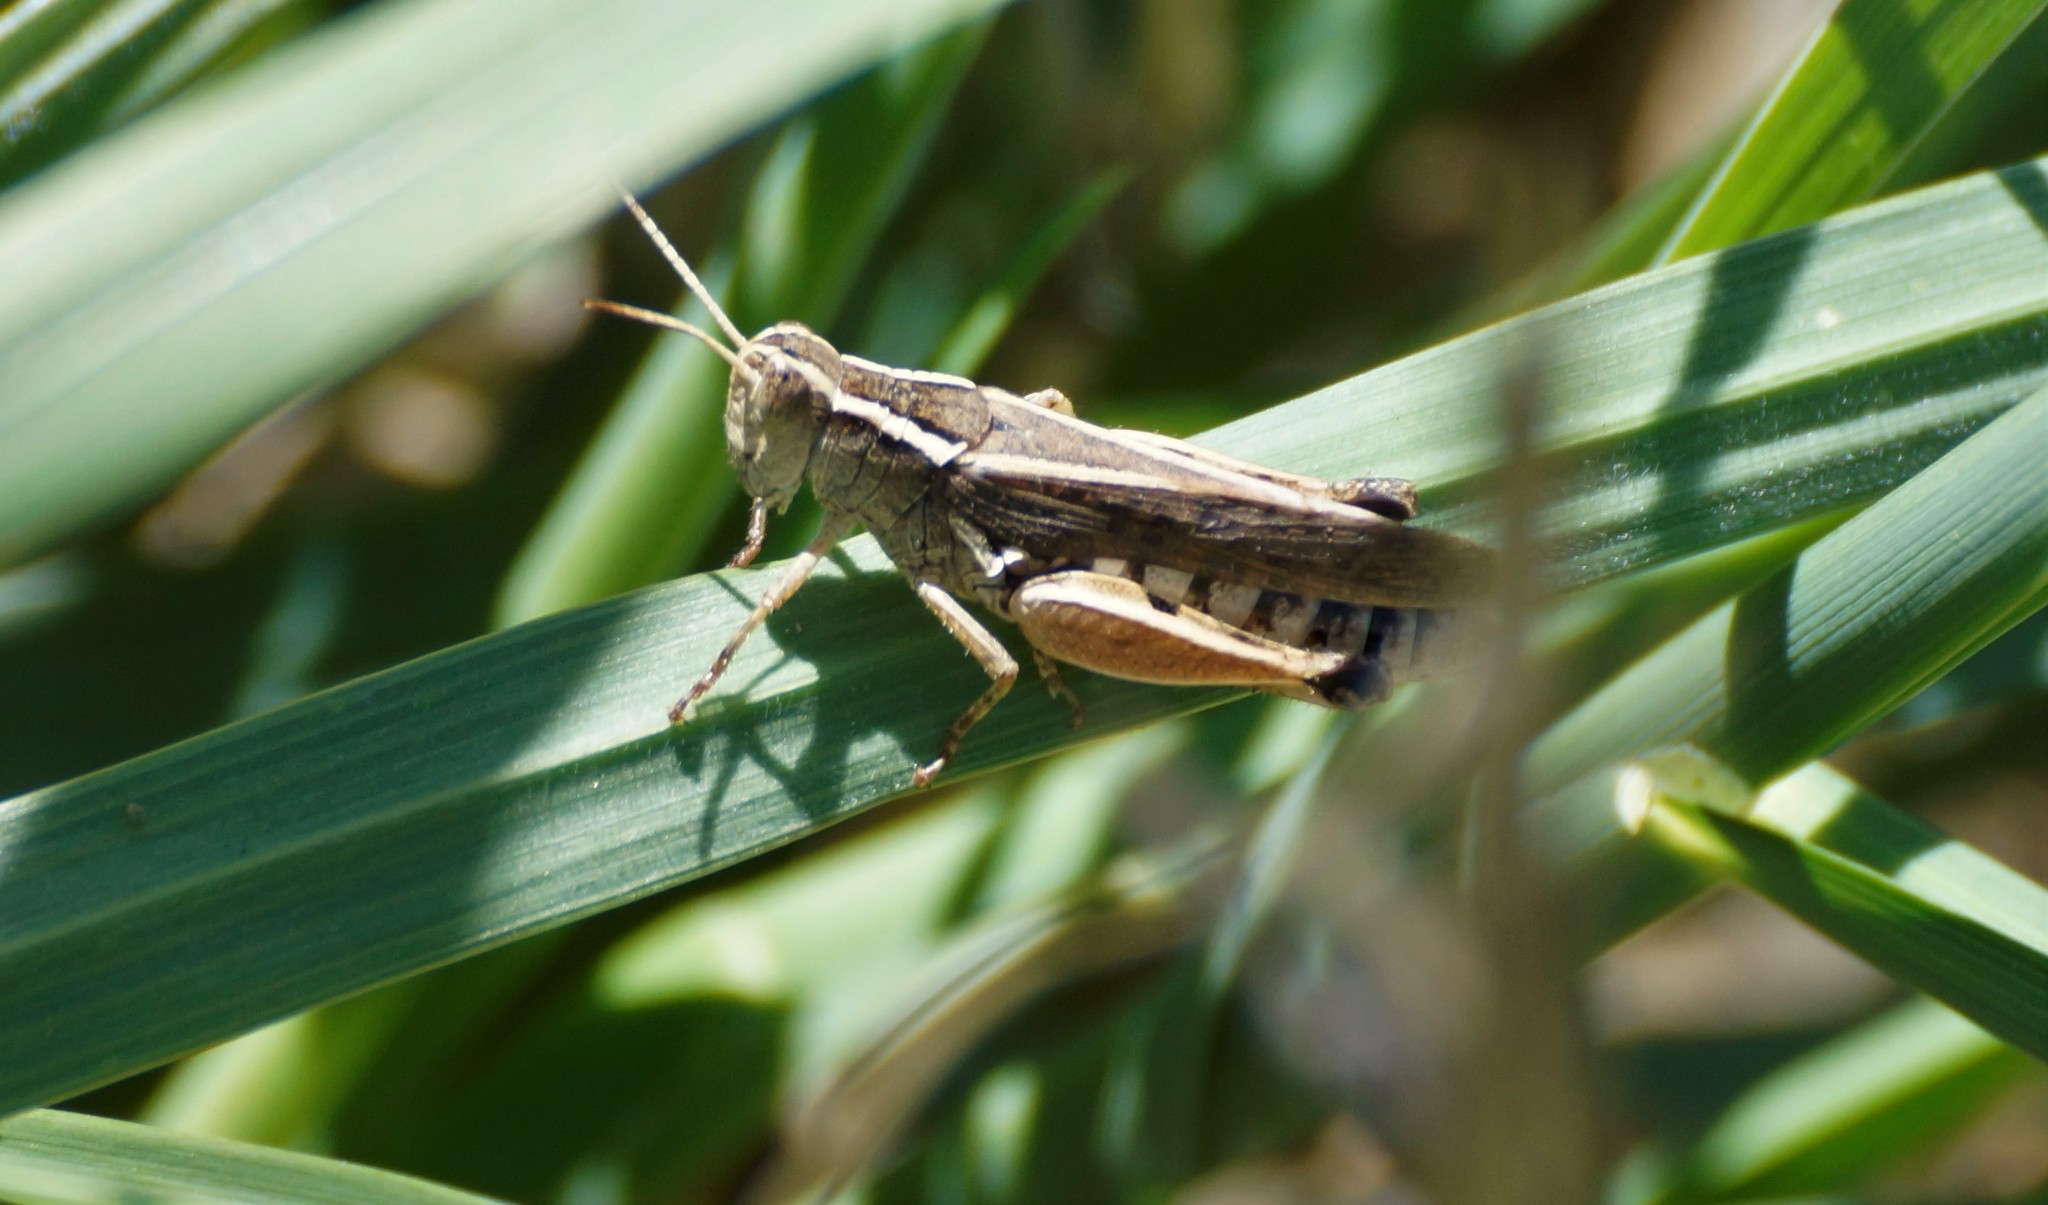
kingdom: Animalia
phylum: Arthropoda
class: Insecta
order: Orthoptera
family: Acrididae
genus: Phaulacridium
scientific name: Phaulacridium vittatum
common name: Wingless grasshopper
